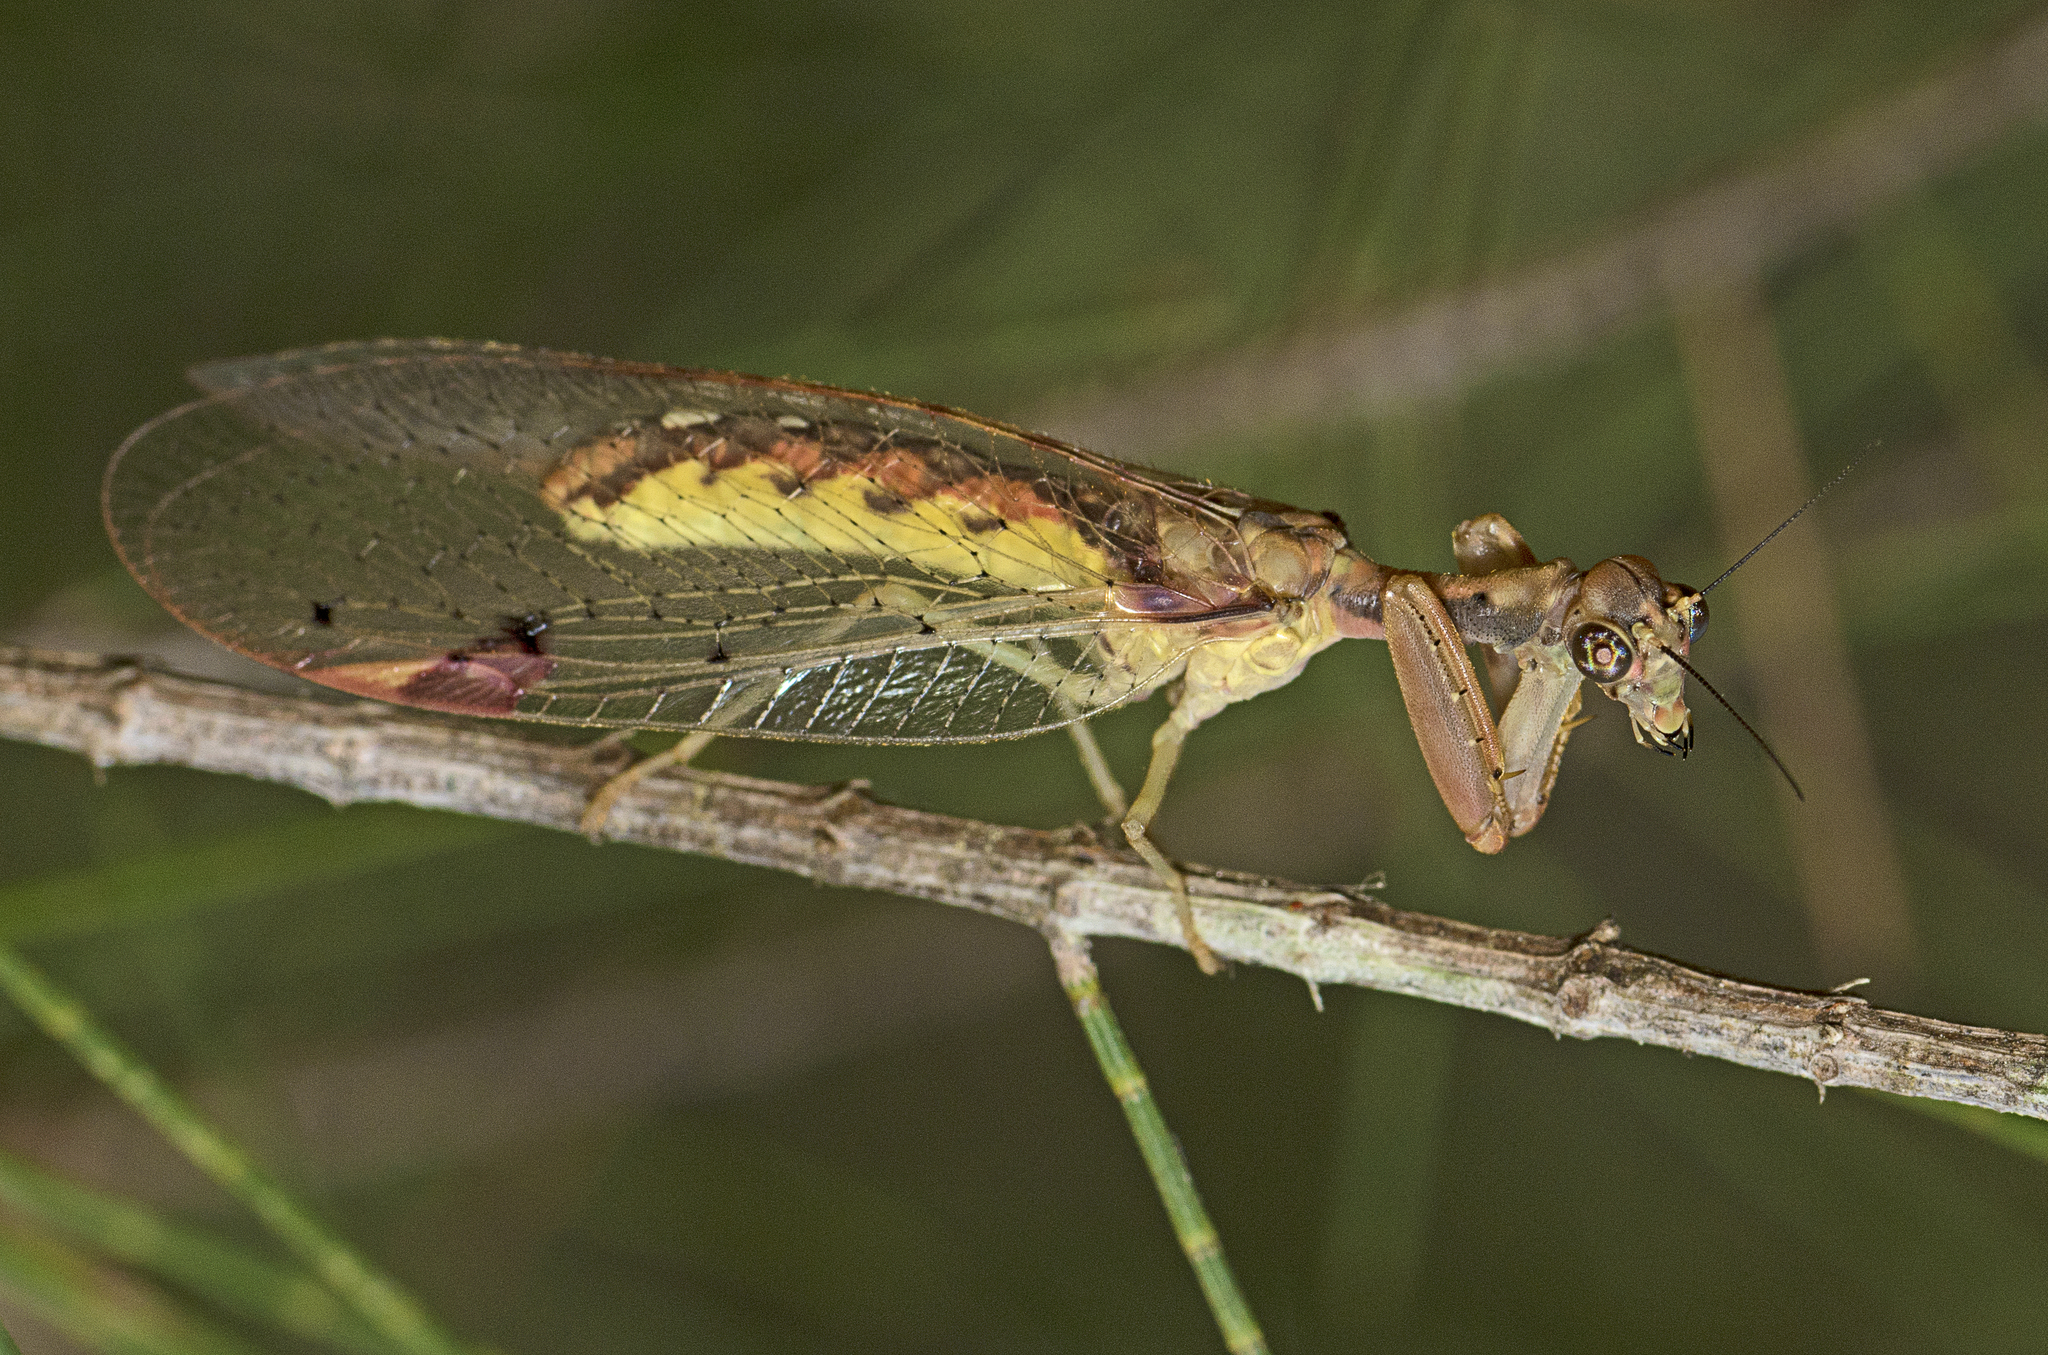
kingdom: Animalia
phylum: Arthropoda
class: Insecta
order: Neuroptera
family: Mantispidae
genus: Ditaxis
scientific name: Ditaxis biseriata
